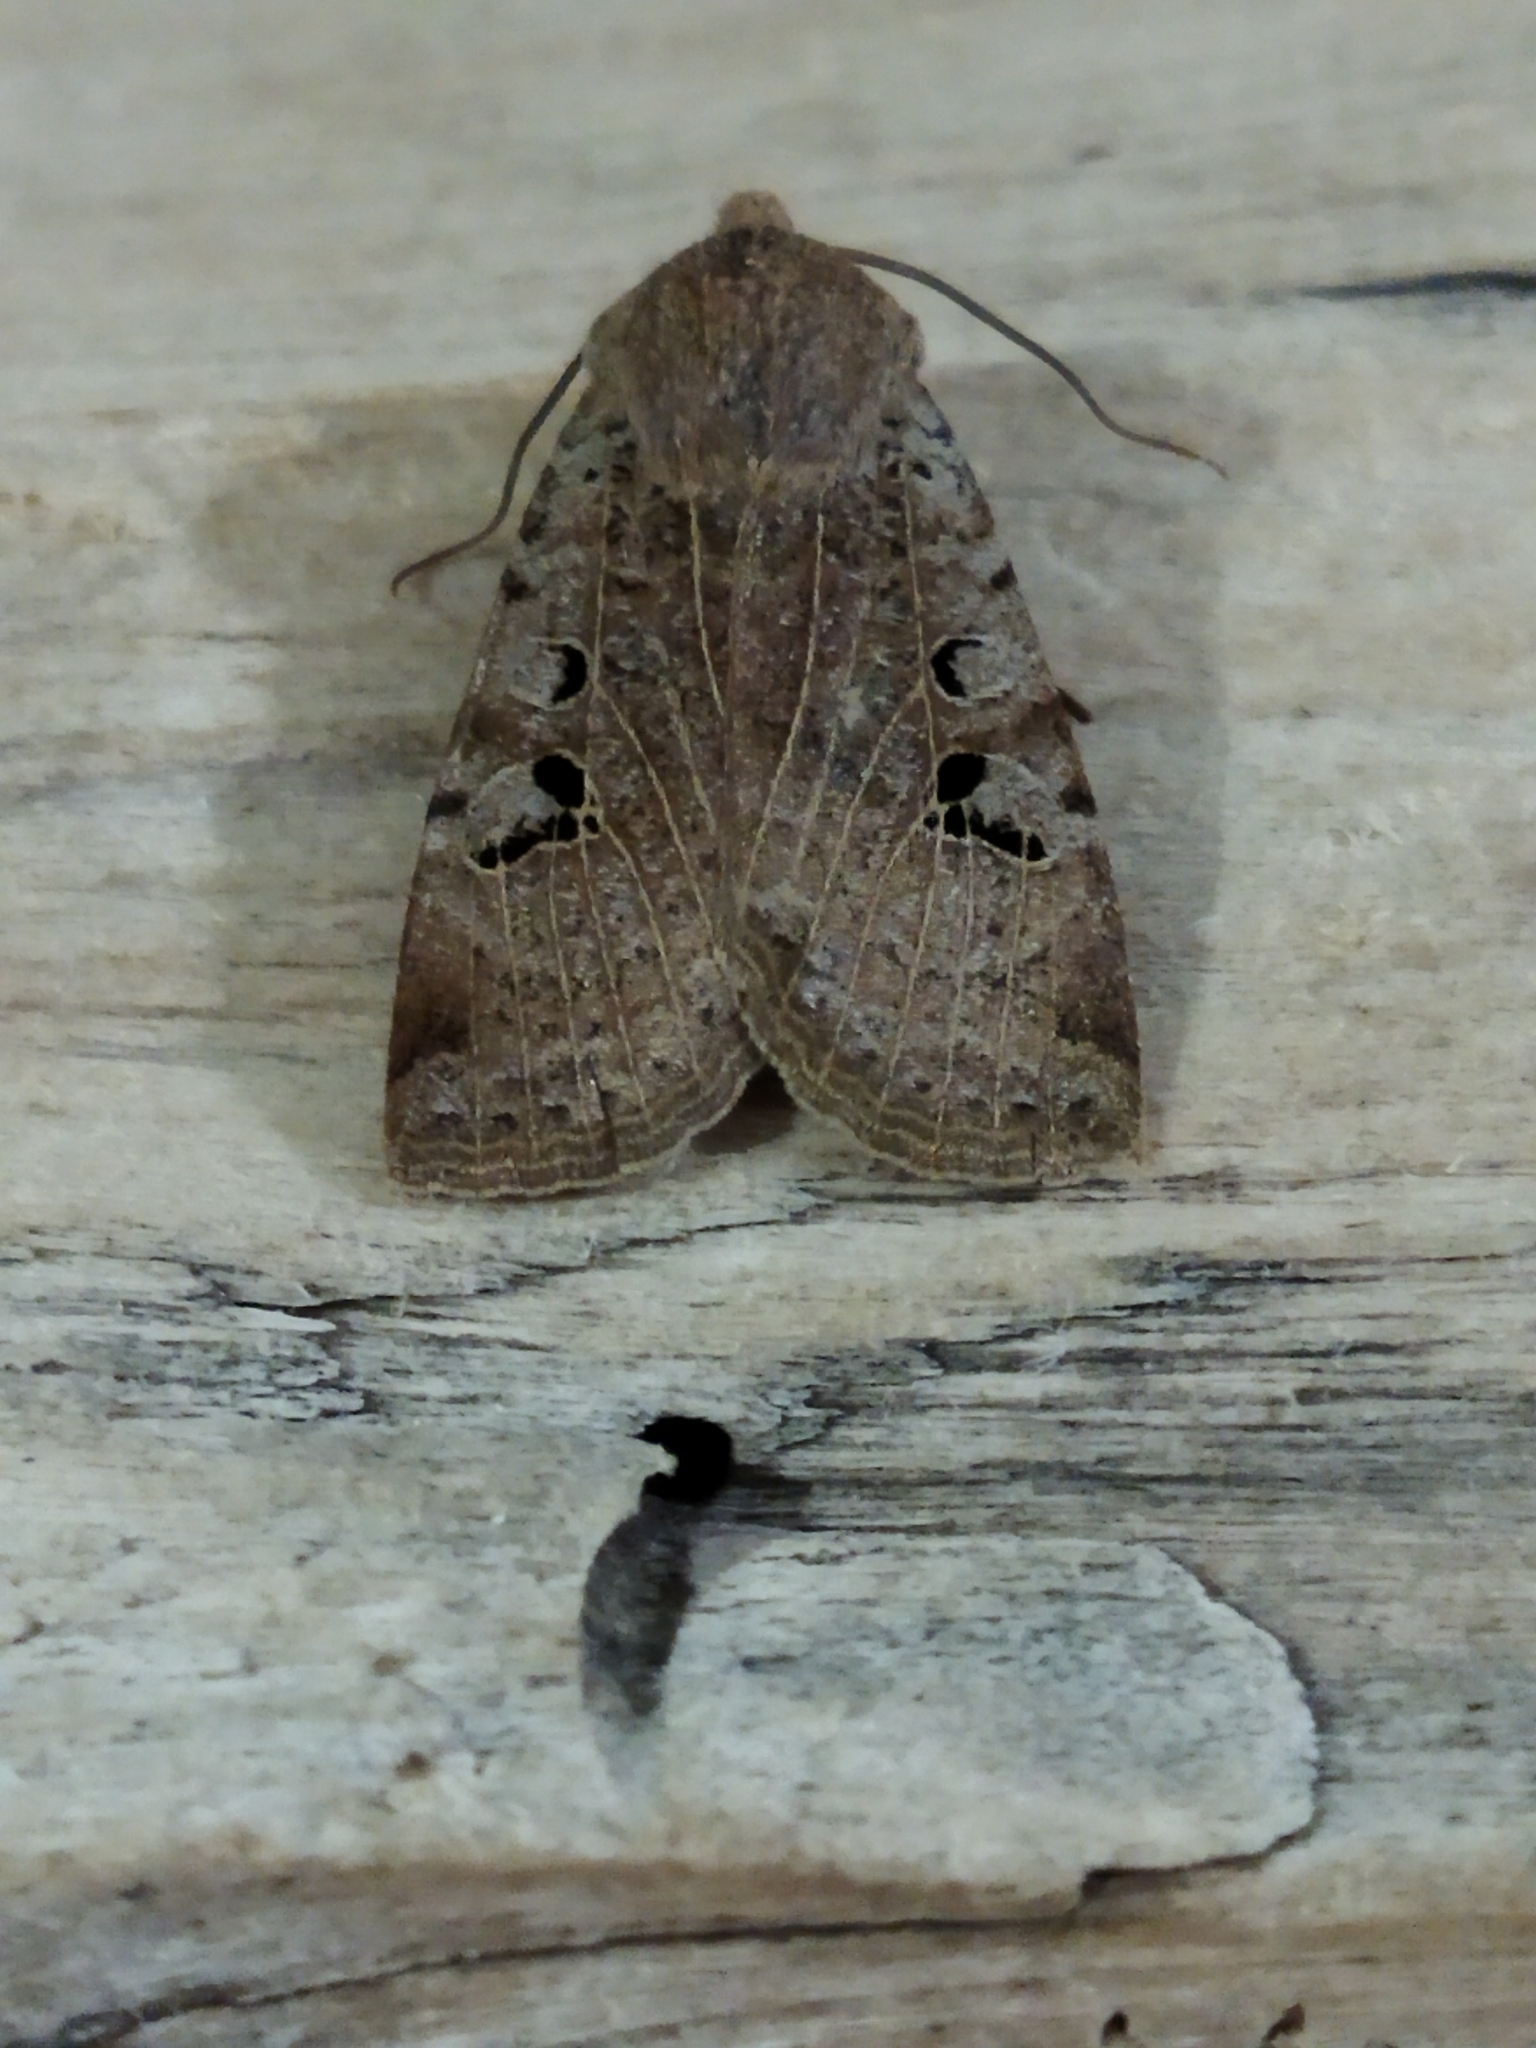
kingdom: Animalia
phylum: Arthropoda
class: Insecta
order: Lepidoptera
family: Noctuidae
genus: Conistra
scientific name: Conistra rubiginosa
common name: Black-spotted chestnut
